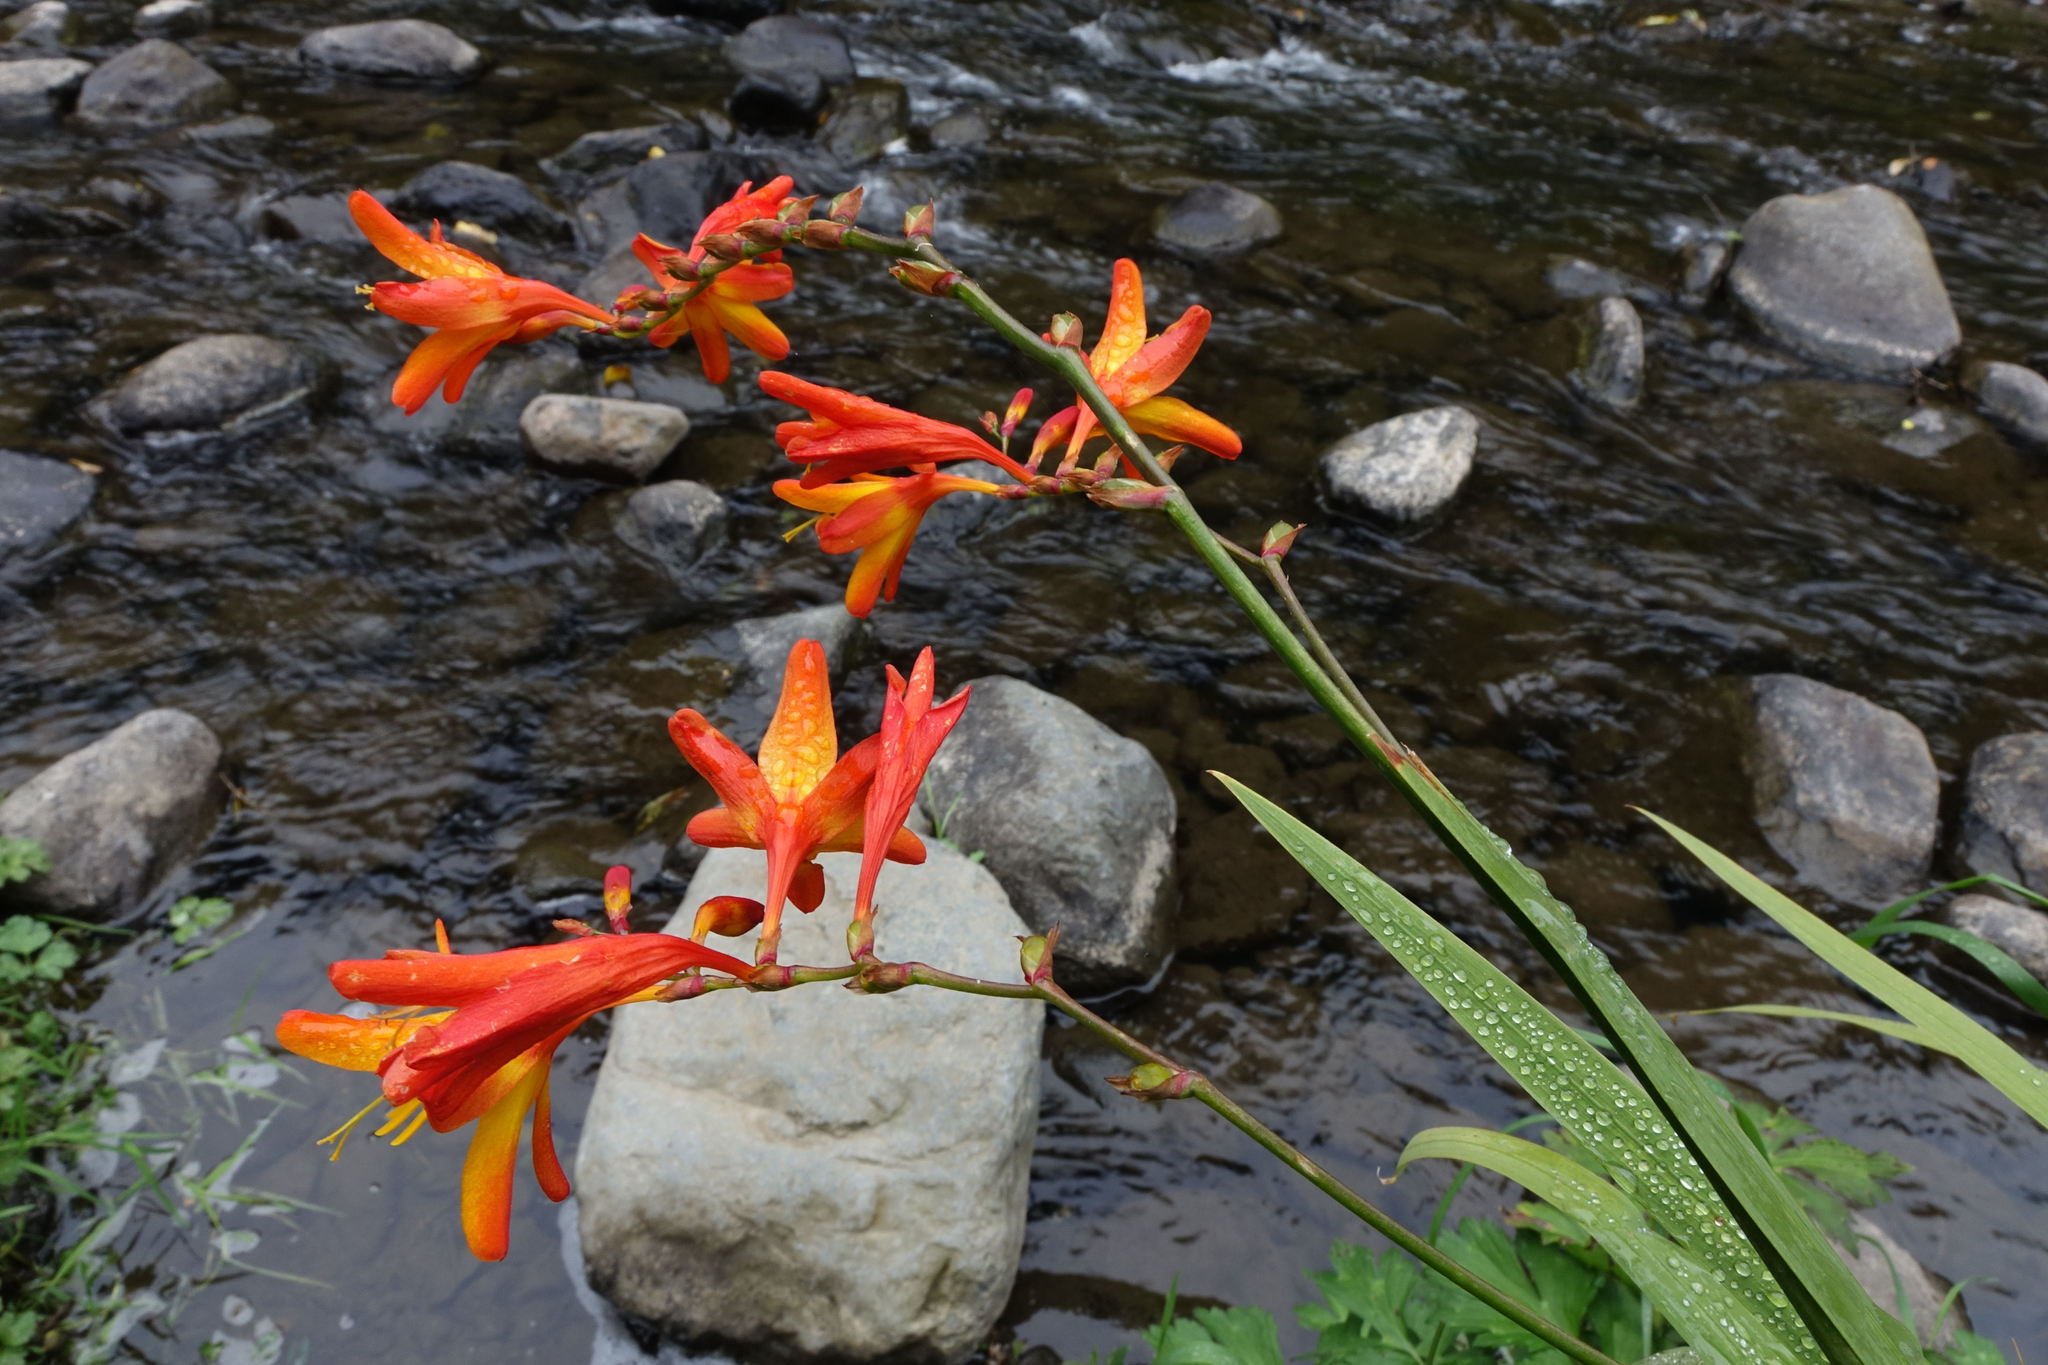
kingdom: Plantae
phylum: Tracheophyta
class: Liliopsida
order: Asparagales
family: Iridaceae
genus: Crocosmia
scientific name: Crocosmia crocosmiiflora
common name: Montbretia
